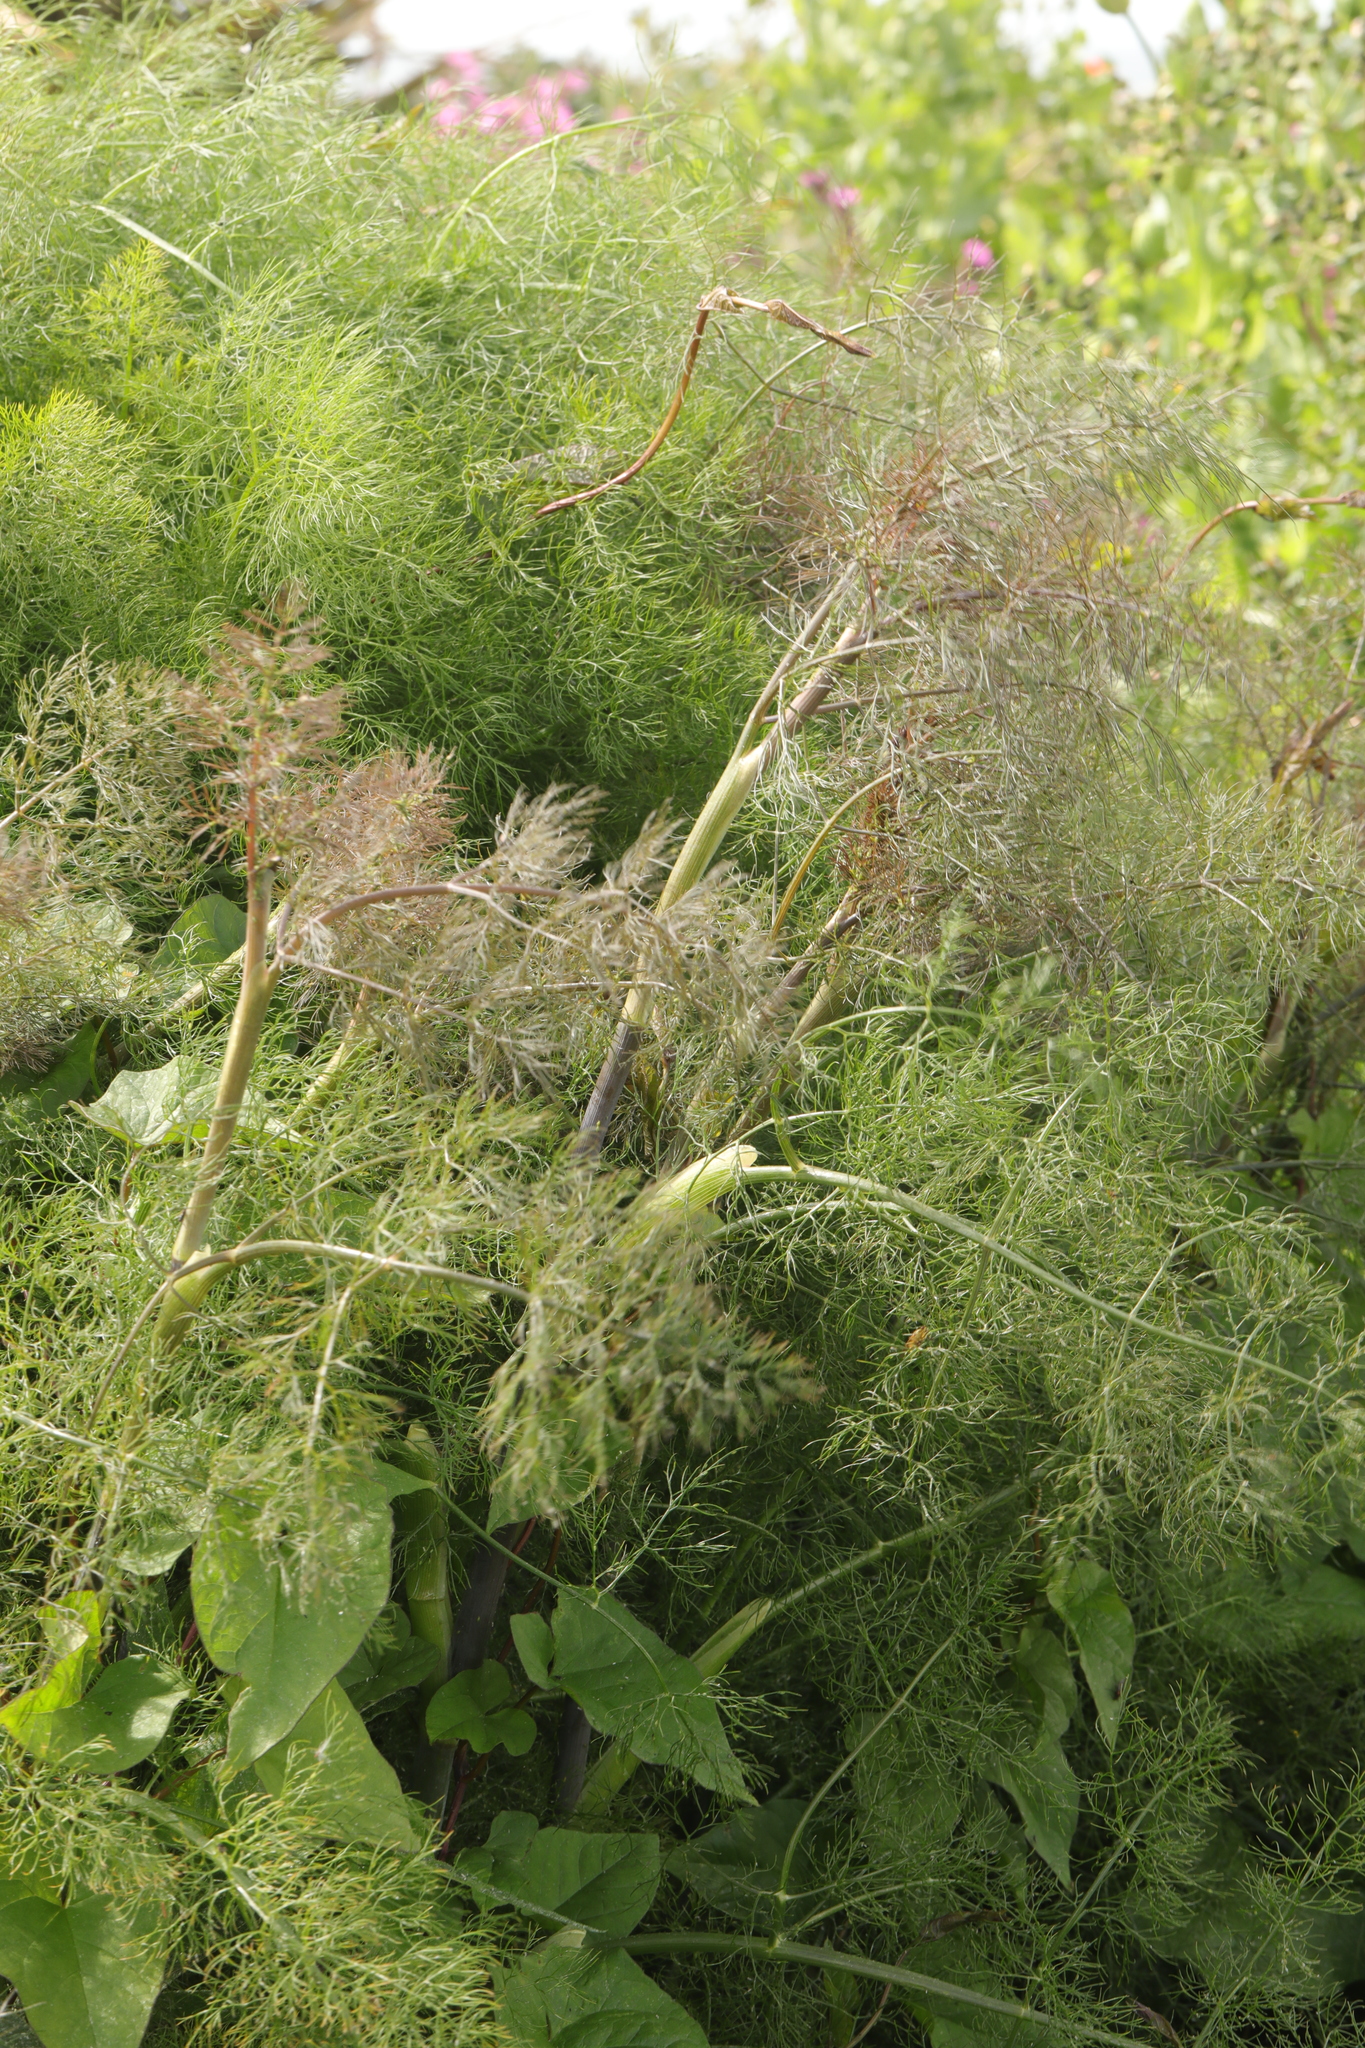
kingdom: Plantae
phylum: Tracheophyta
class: Magnoliopsida
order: Apiales
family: Apiaceae
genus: Foeniculum
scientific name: Foeniculum vulgare
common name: Fennel
